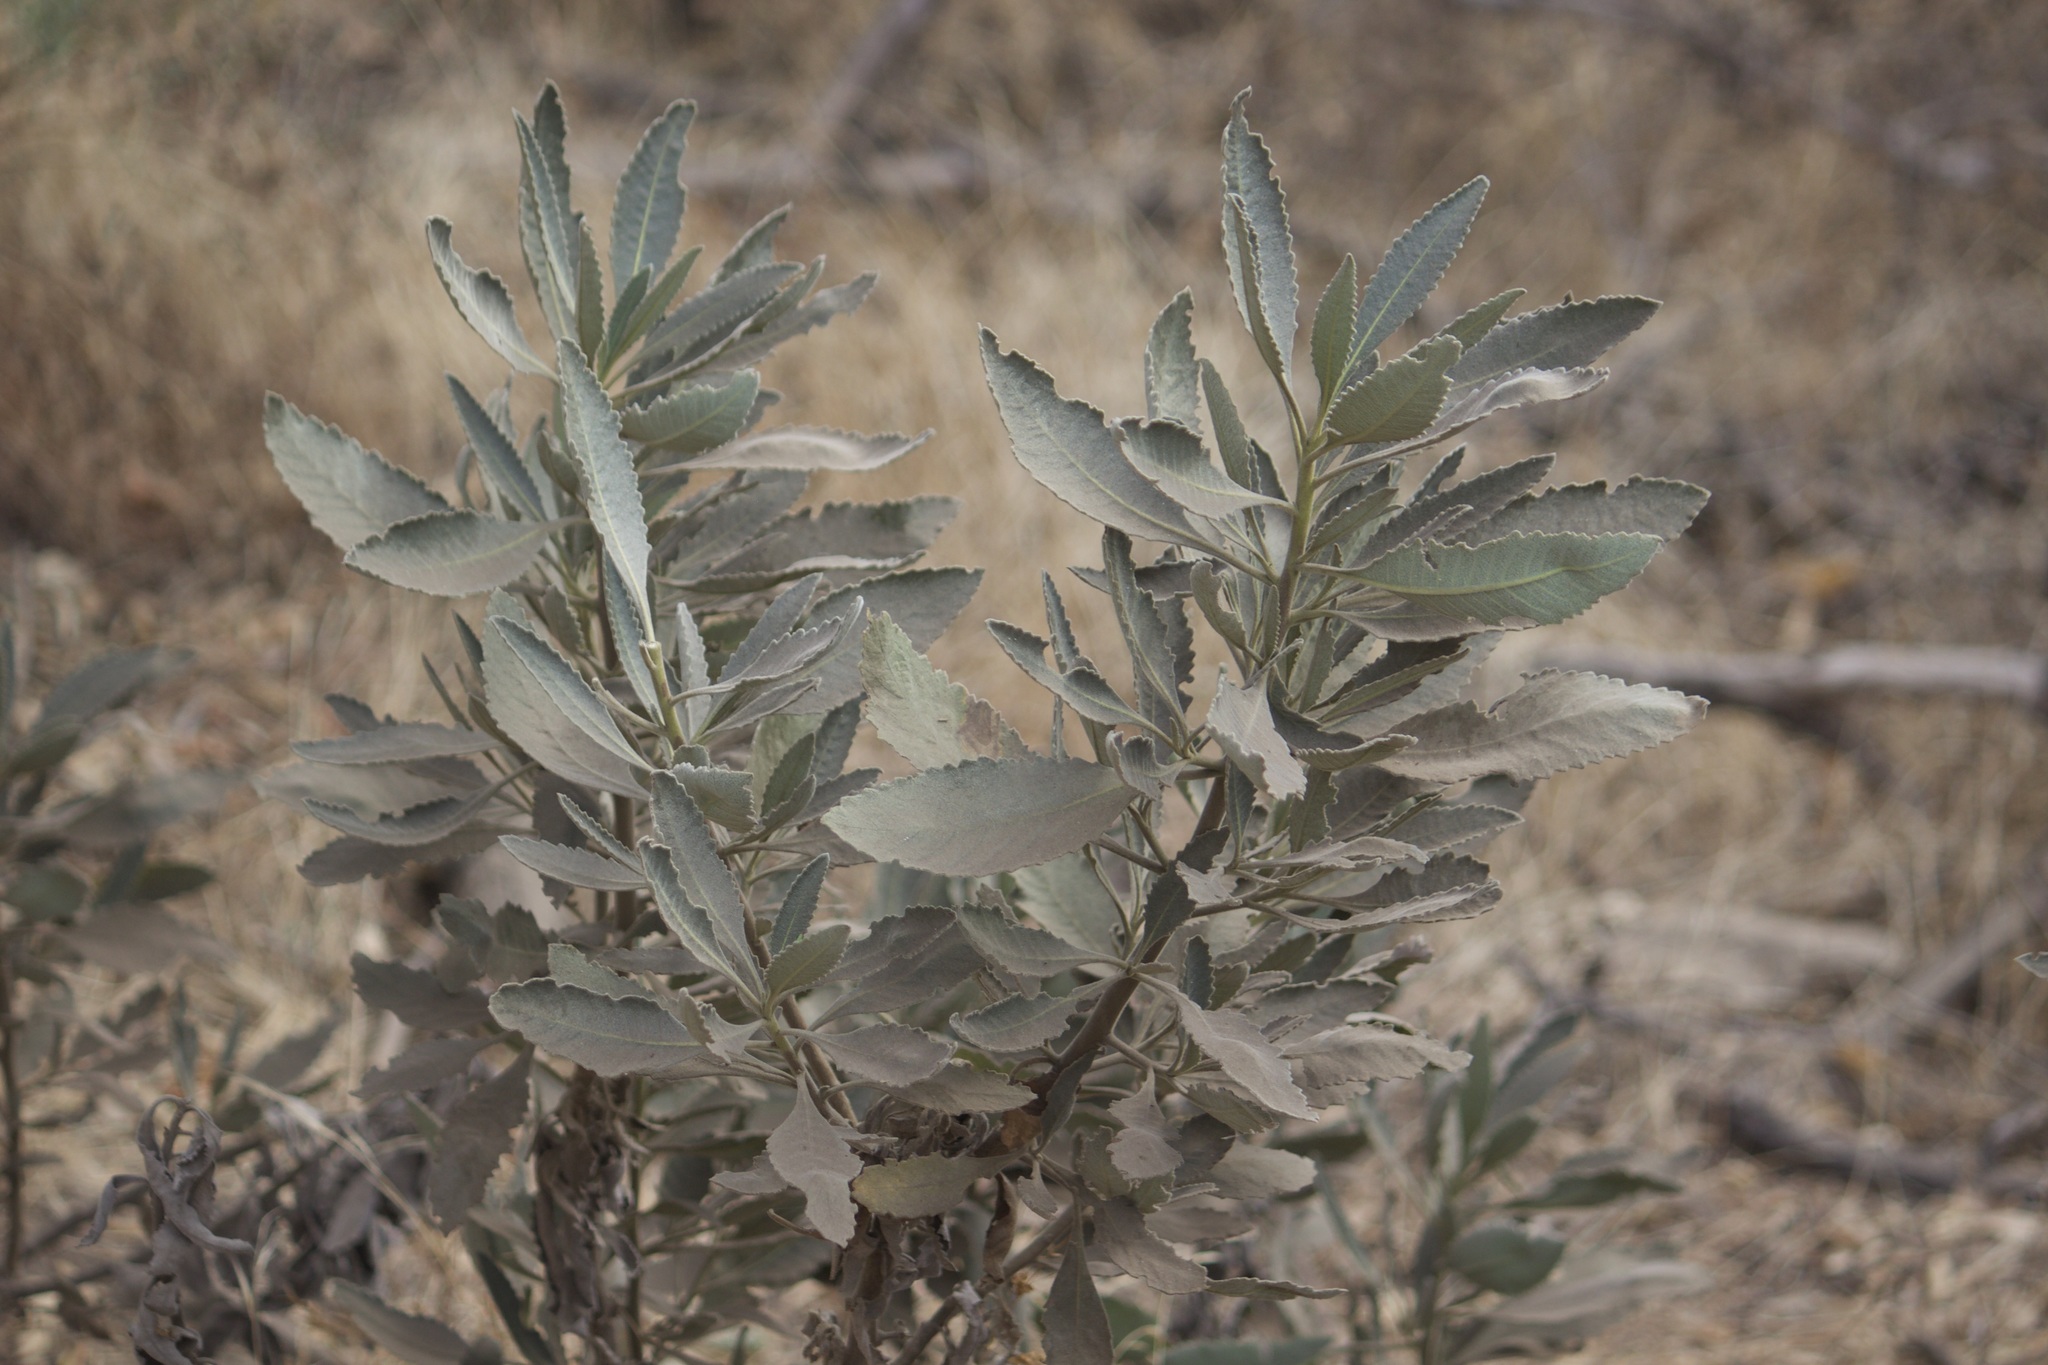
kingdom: Plantae
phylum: Tracheophyta
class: Magnoliopsida
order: Boraginales
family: Namaceae
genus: Eriodictyon
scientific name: Eriodictyon crassifolium
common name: Thick-leaf yerba-santa
